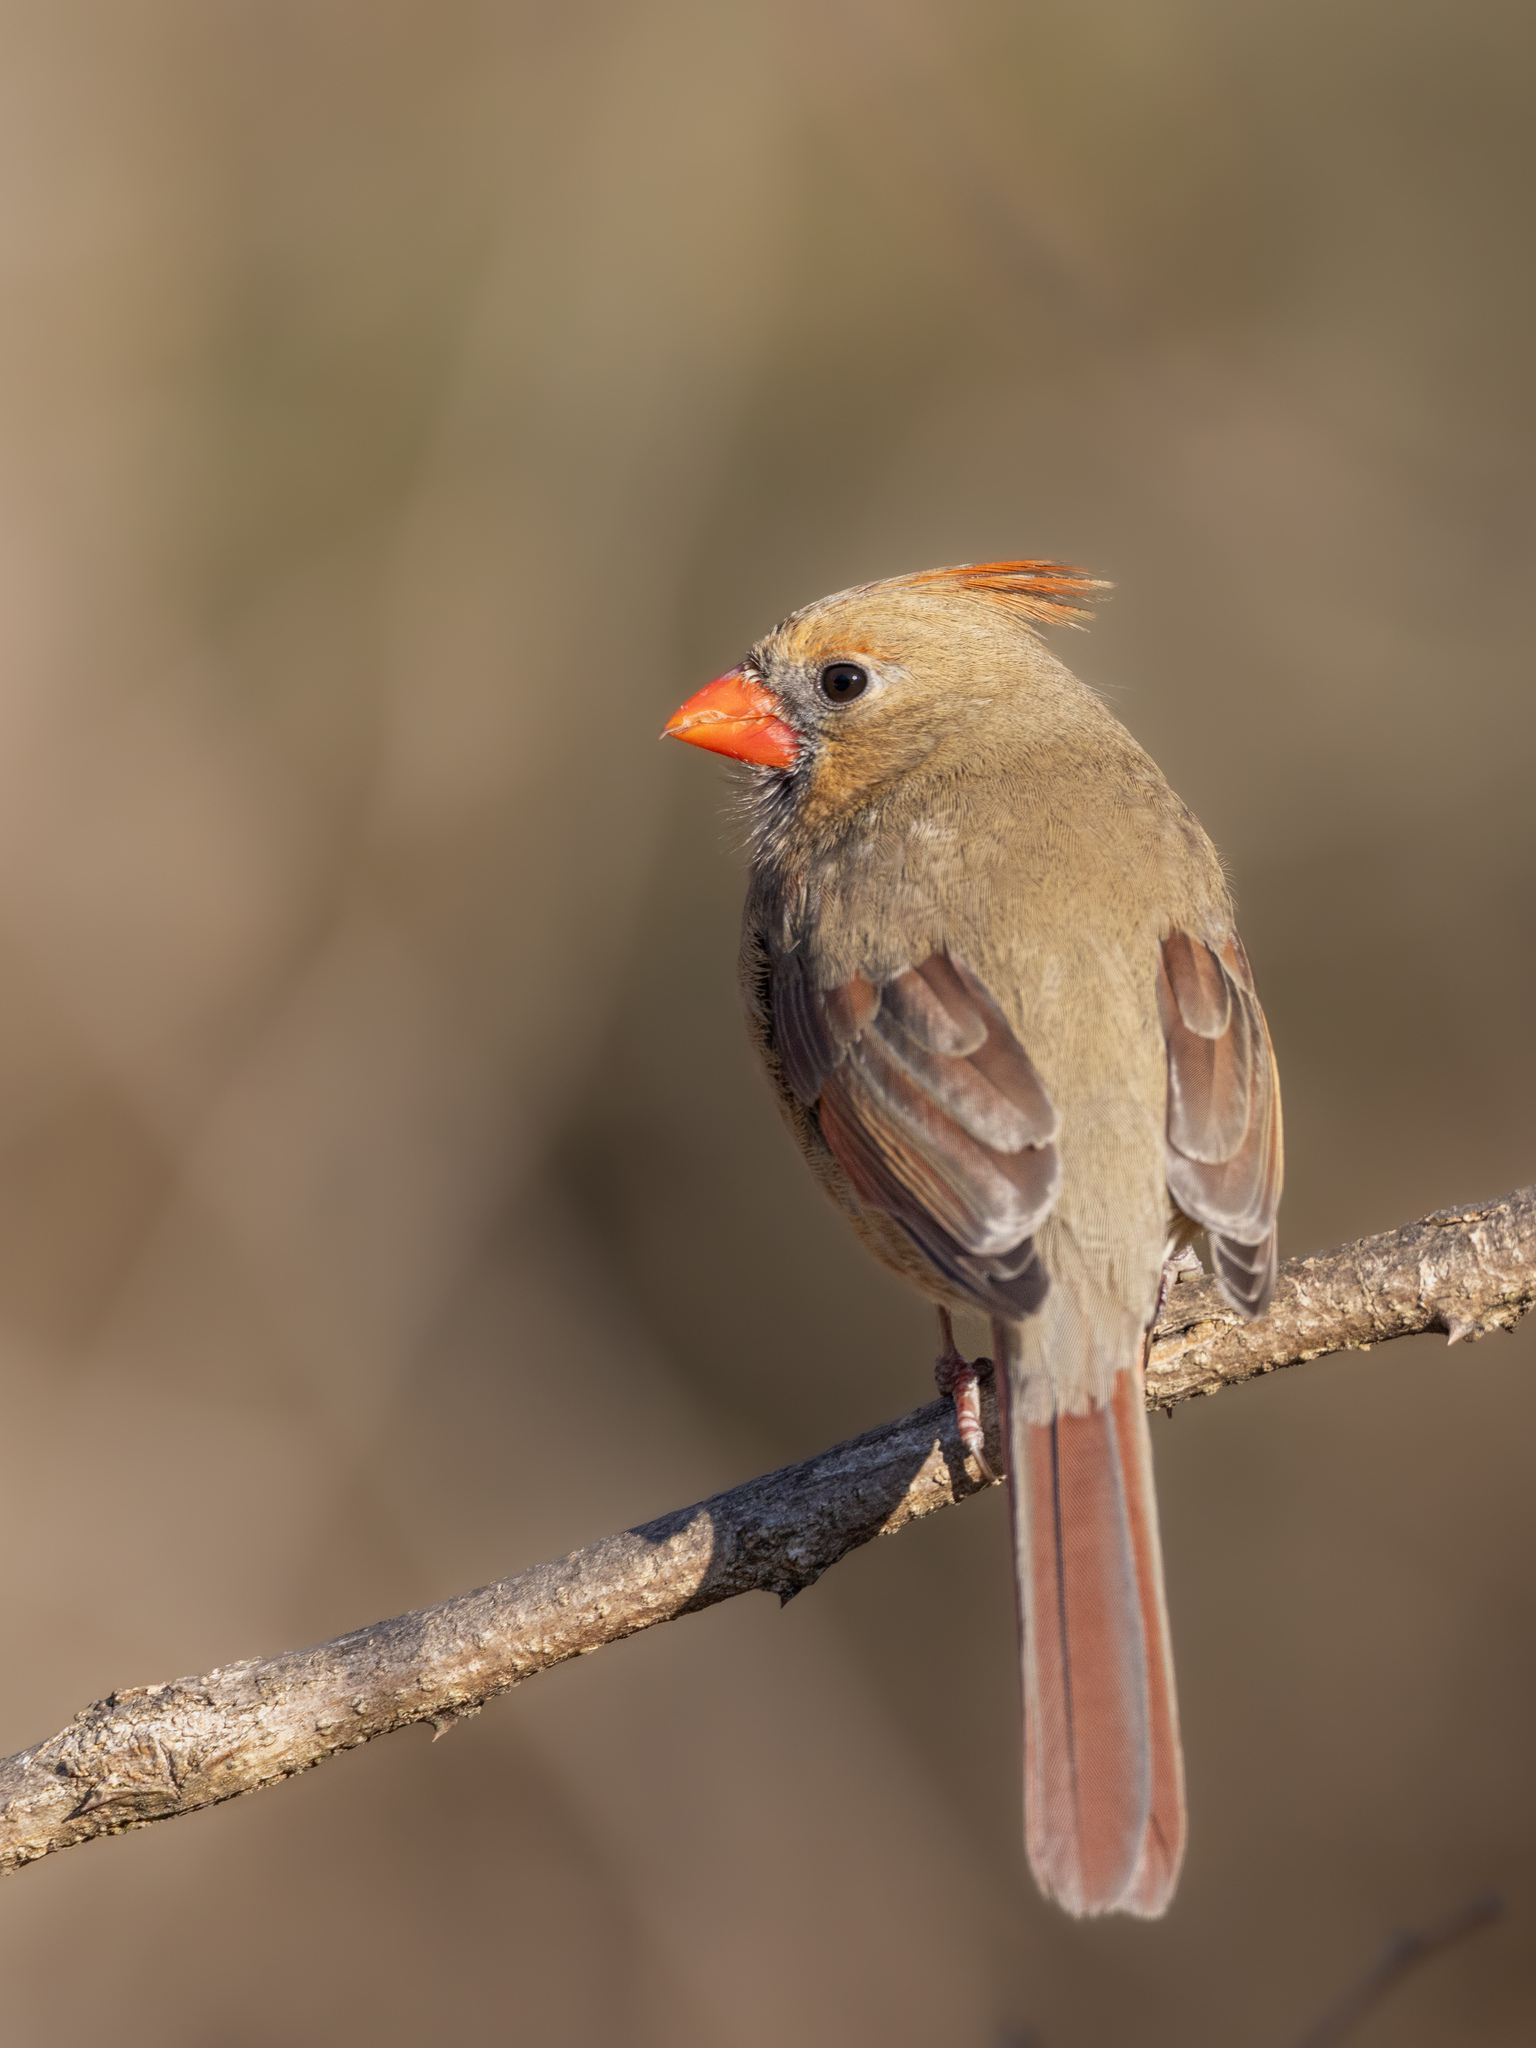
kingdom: Animalia
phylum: Chordata
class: Aves
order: Passeriformes
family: Cardinalidae
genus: Cardinalis
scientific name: Cardinalis cardinalis
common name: Northern cardinal
